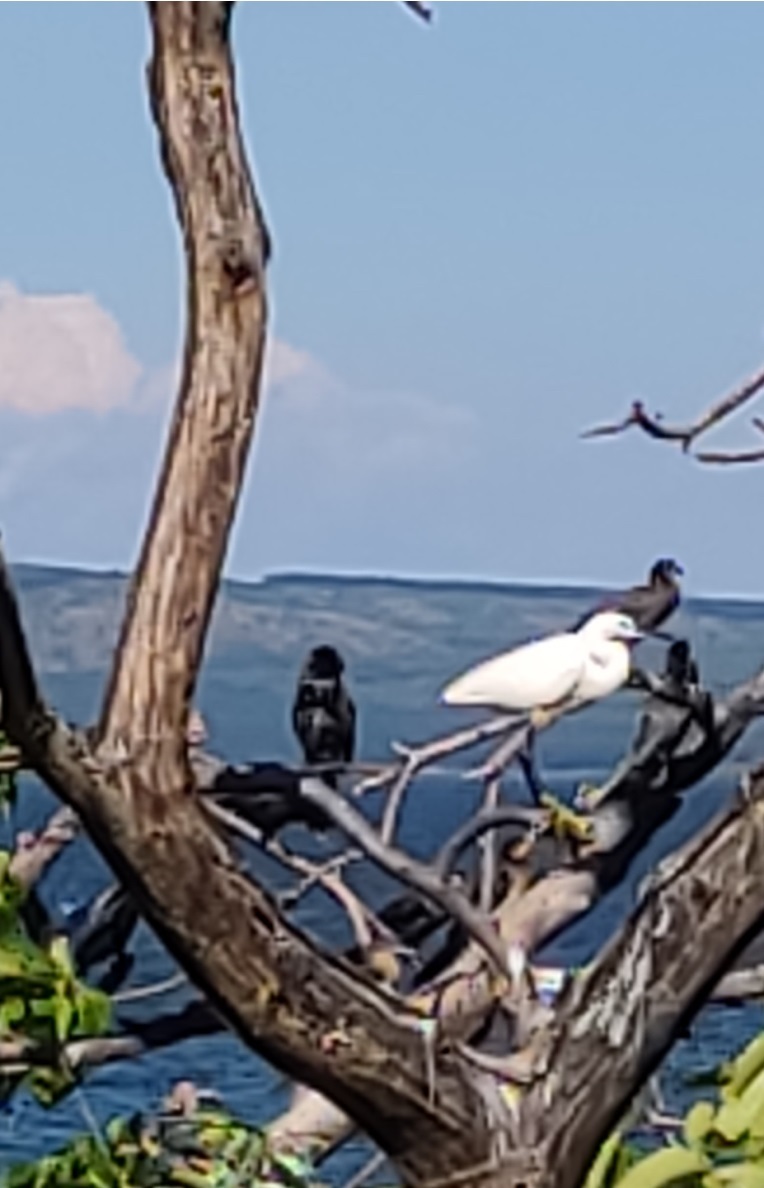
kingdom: Animalia
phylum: Chordata
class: Aves
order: Pelecaniformes
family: Ardeidae
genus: Egretta
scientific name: Egretta garzetta
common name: Little egret
